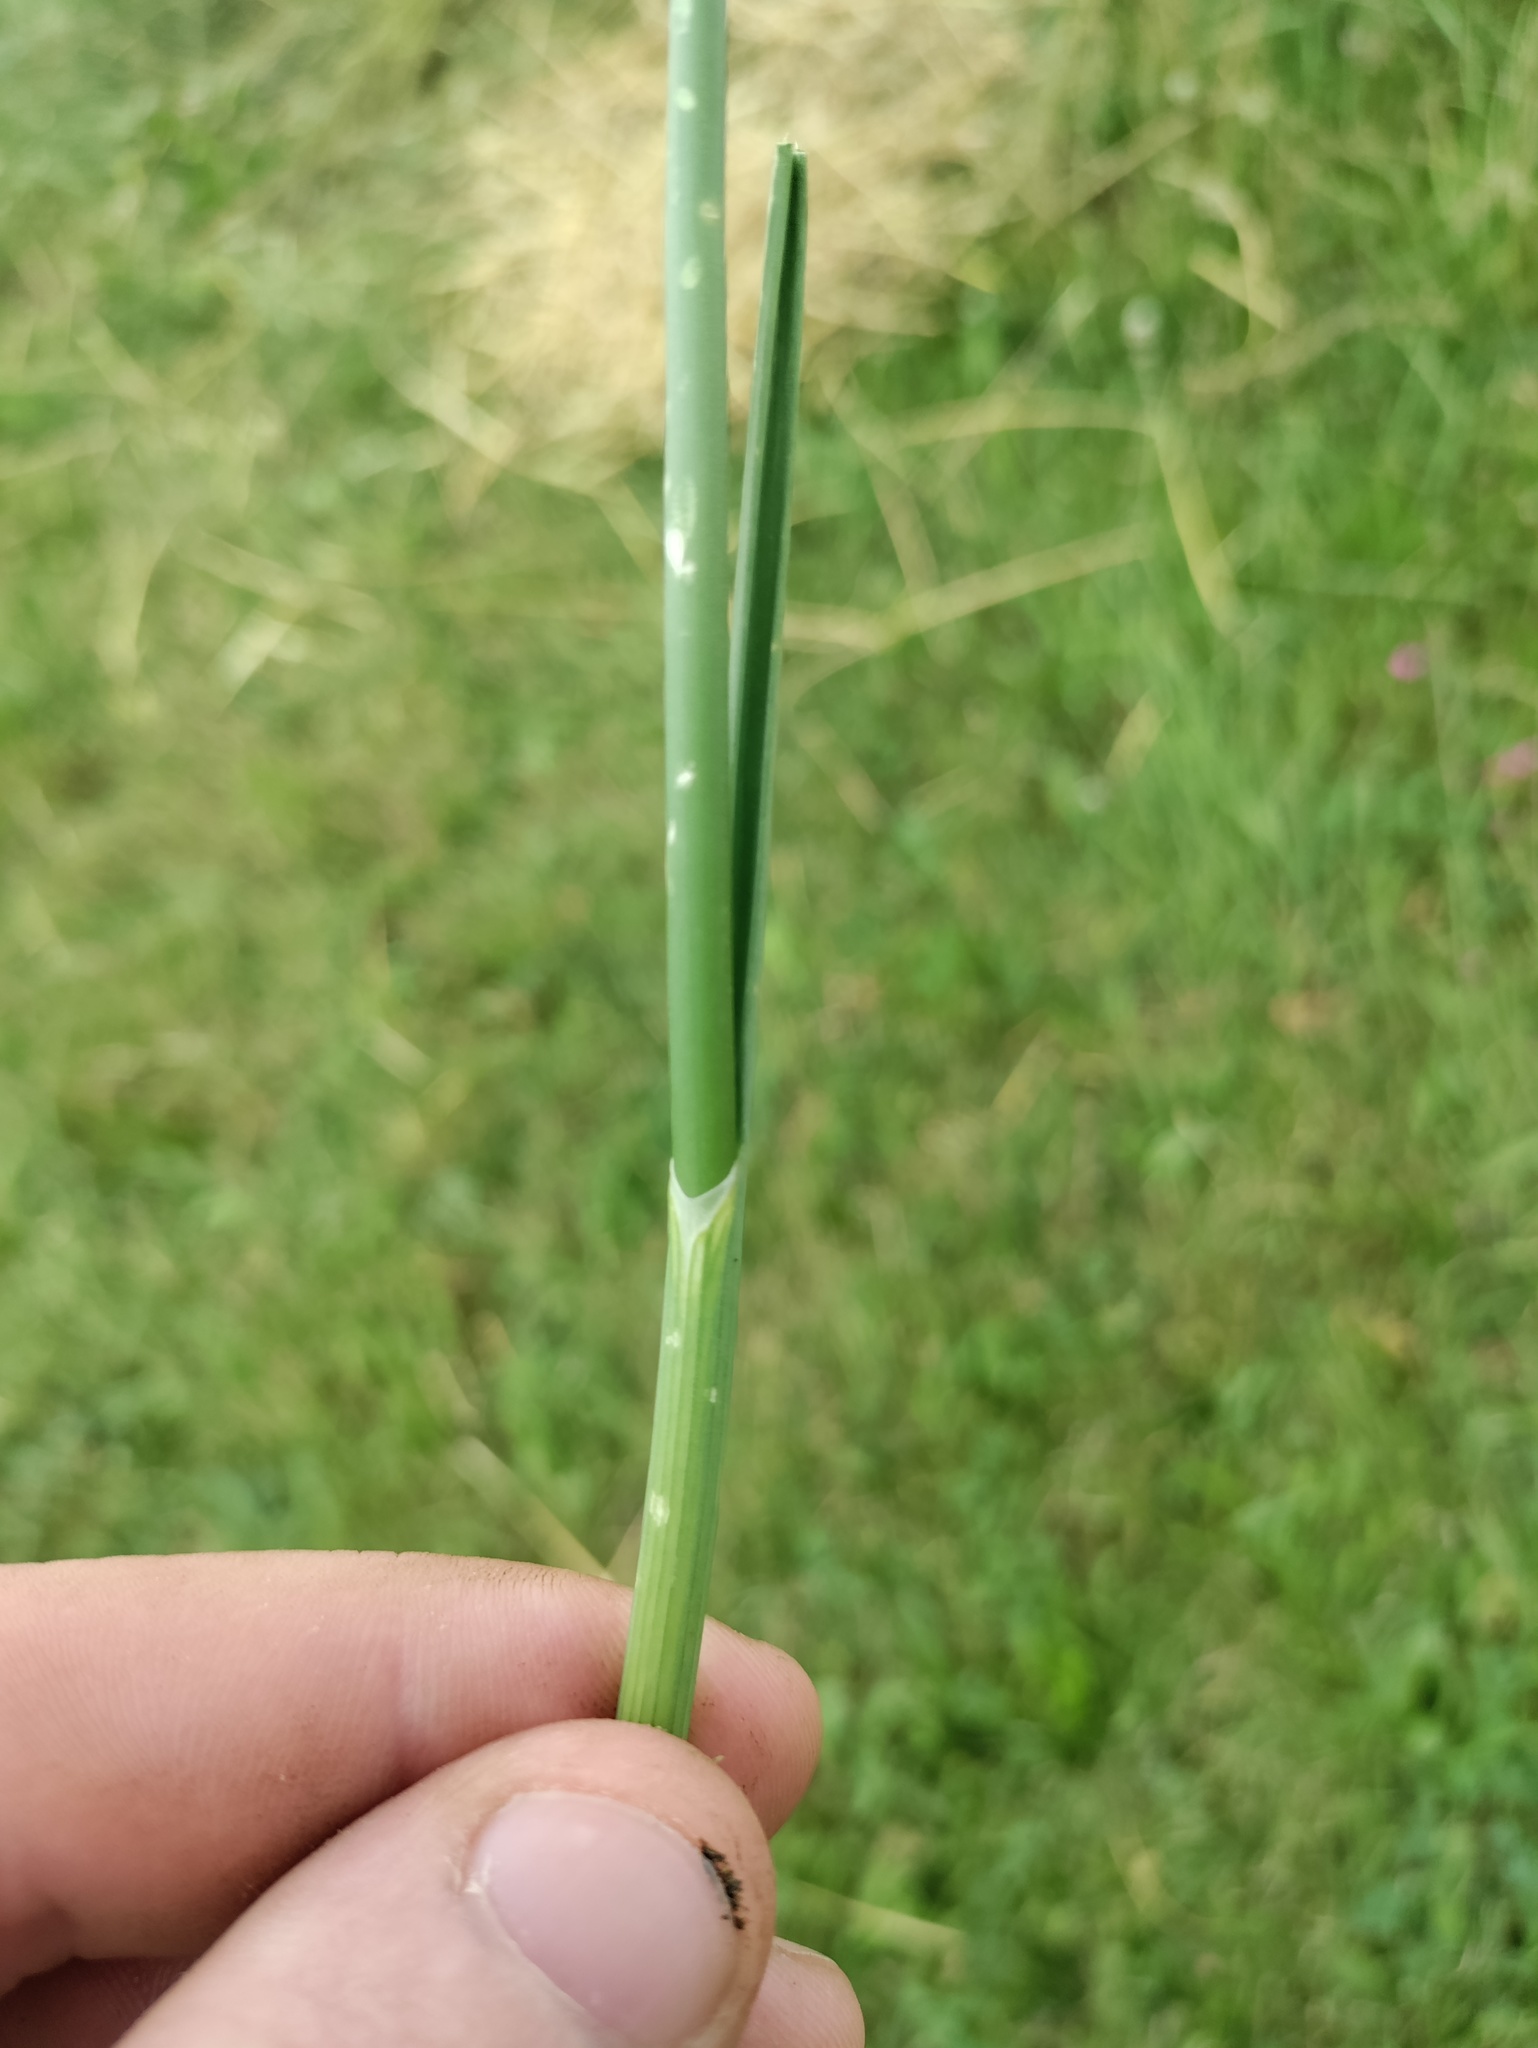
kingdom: Plantae
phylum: Tracheophyta
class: Liliopsida
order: Asparagales
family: Amaryllidaceae
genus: Allium
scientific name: Allium carinatum
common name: Keeled garlic
